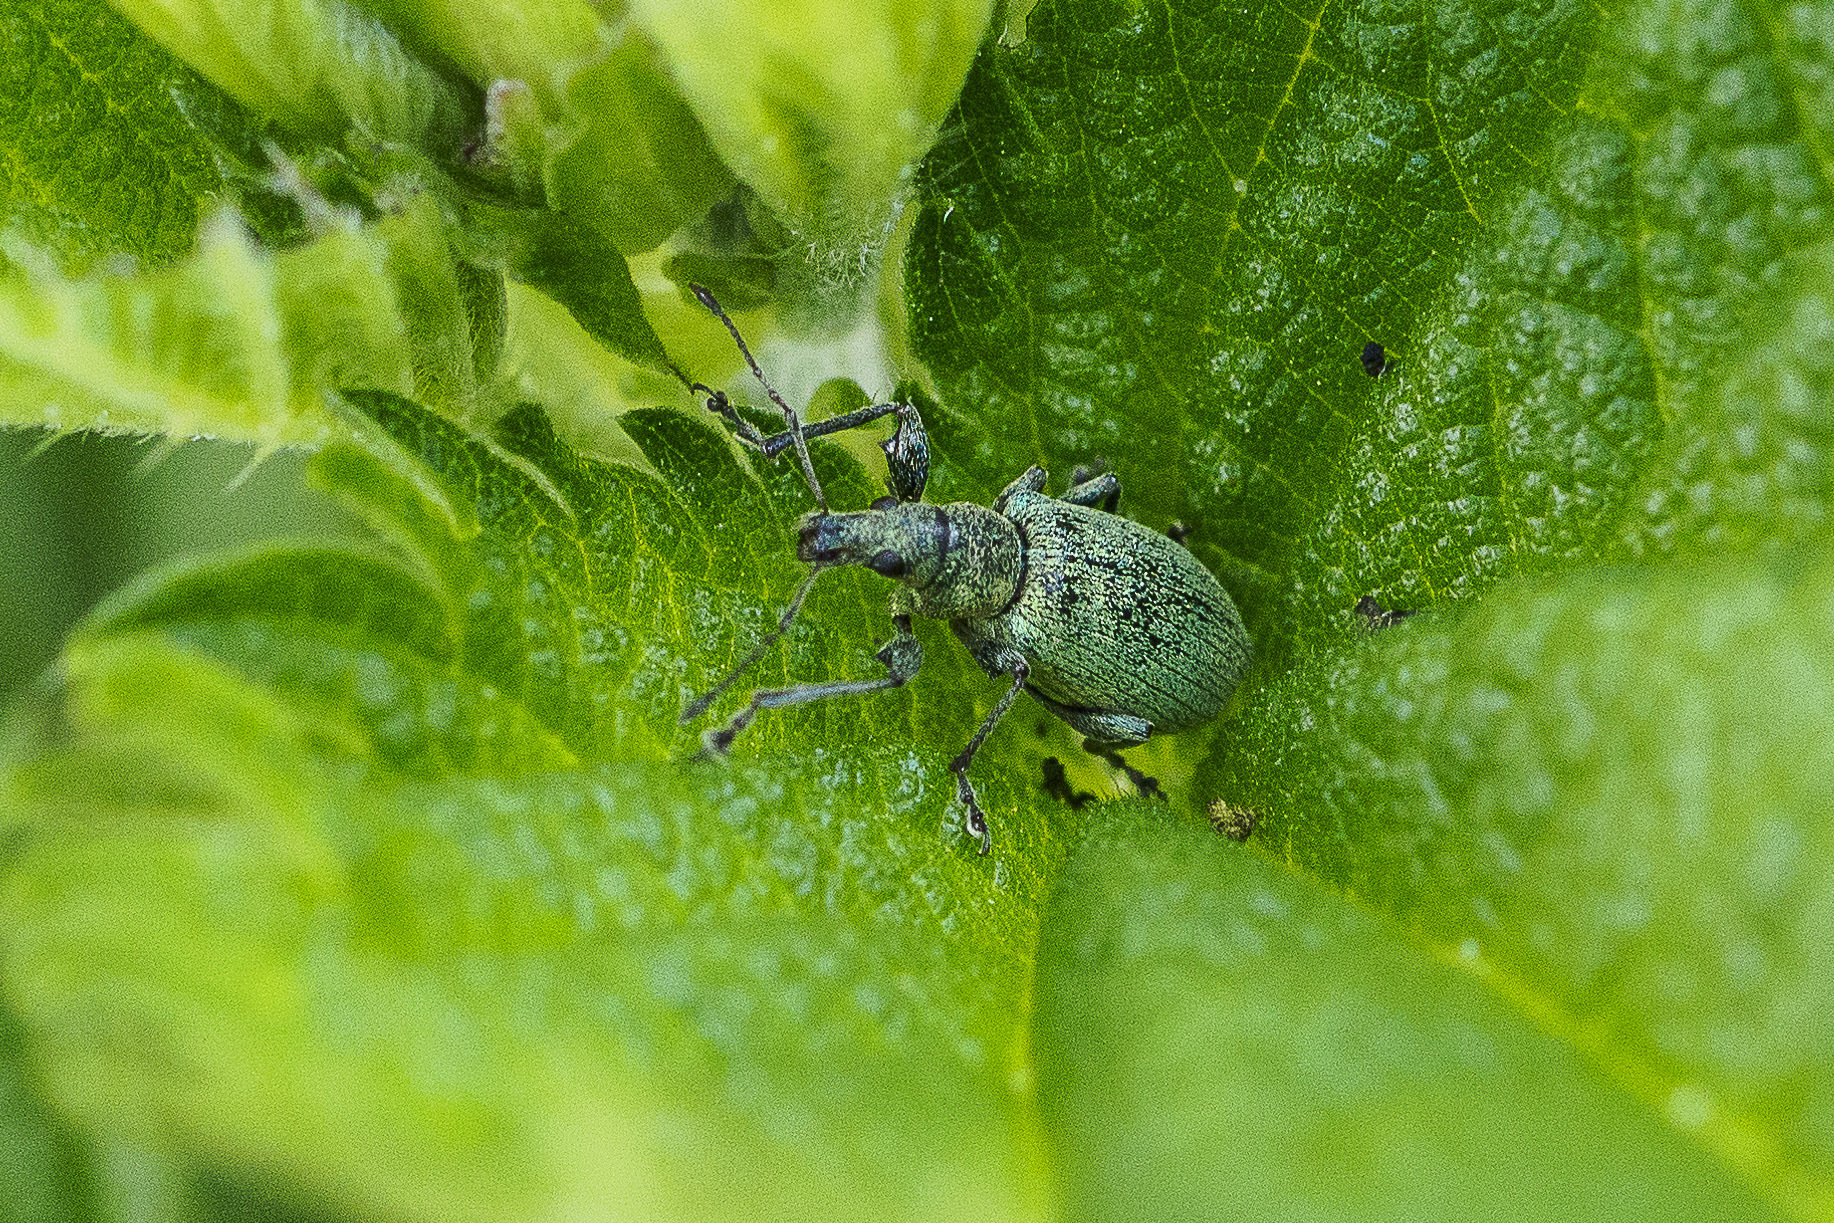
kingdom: Animalia
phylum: Arthropoda
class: Insecta
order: Coleoptera
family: Curculionidae
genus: Phyllobius
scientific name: Phyllobius pomaceus
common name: Green nettle weevil
